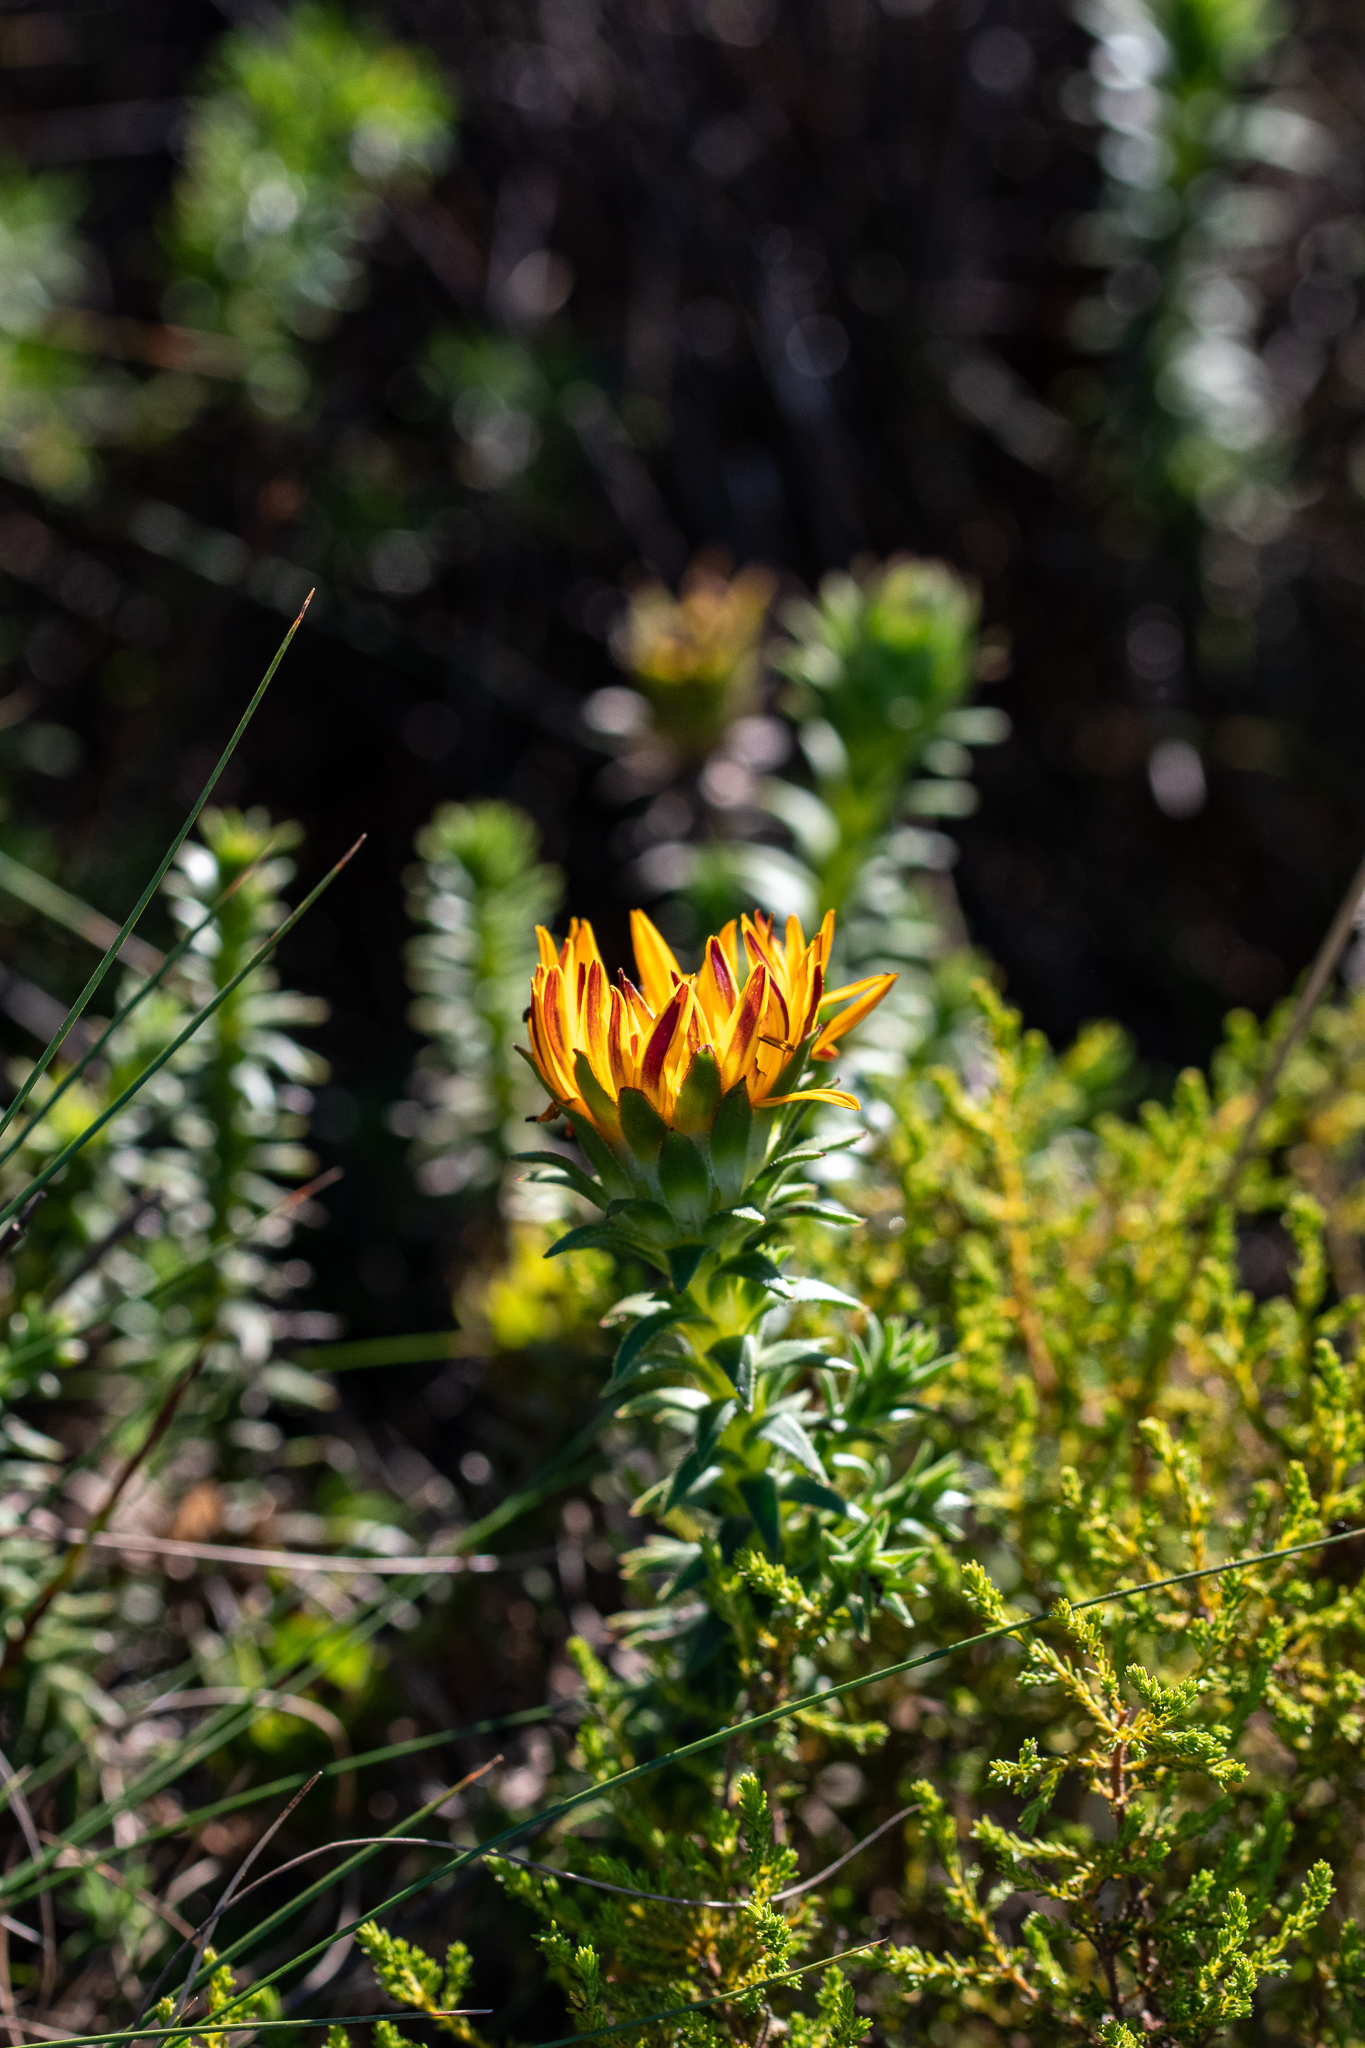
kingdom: Plantae
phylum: Tracheophyta
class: Magnoliopsida
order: Asterales
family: Asteraceae
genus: Oedera
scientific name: Oedera imbricata
